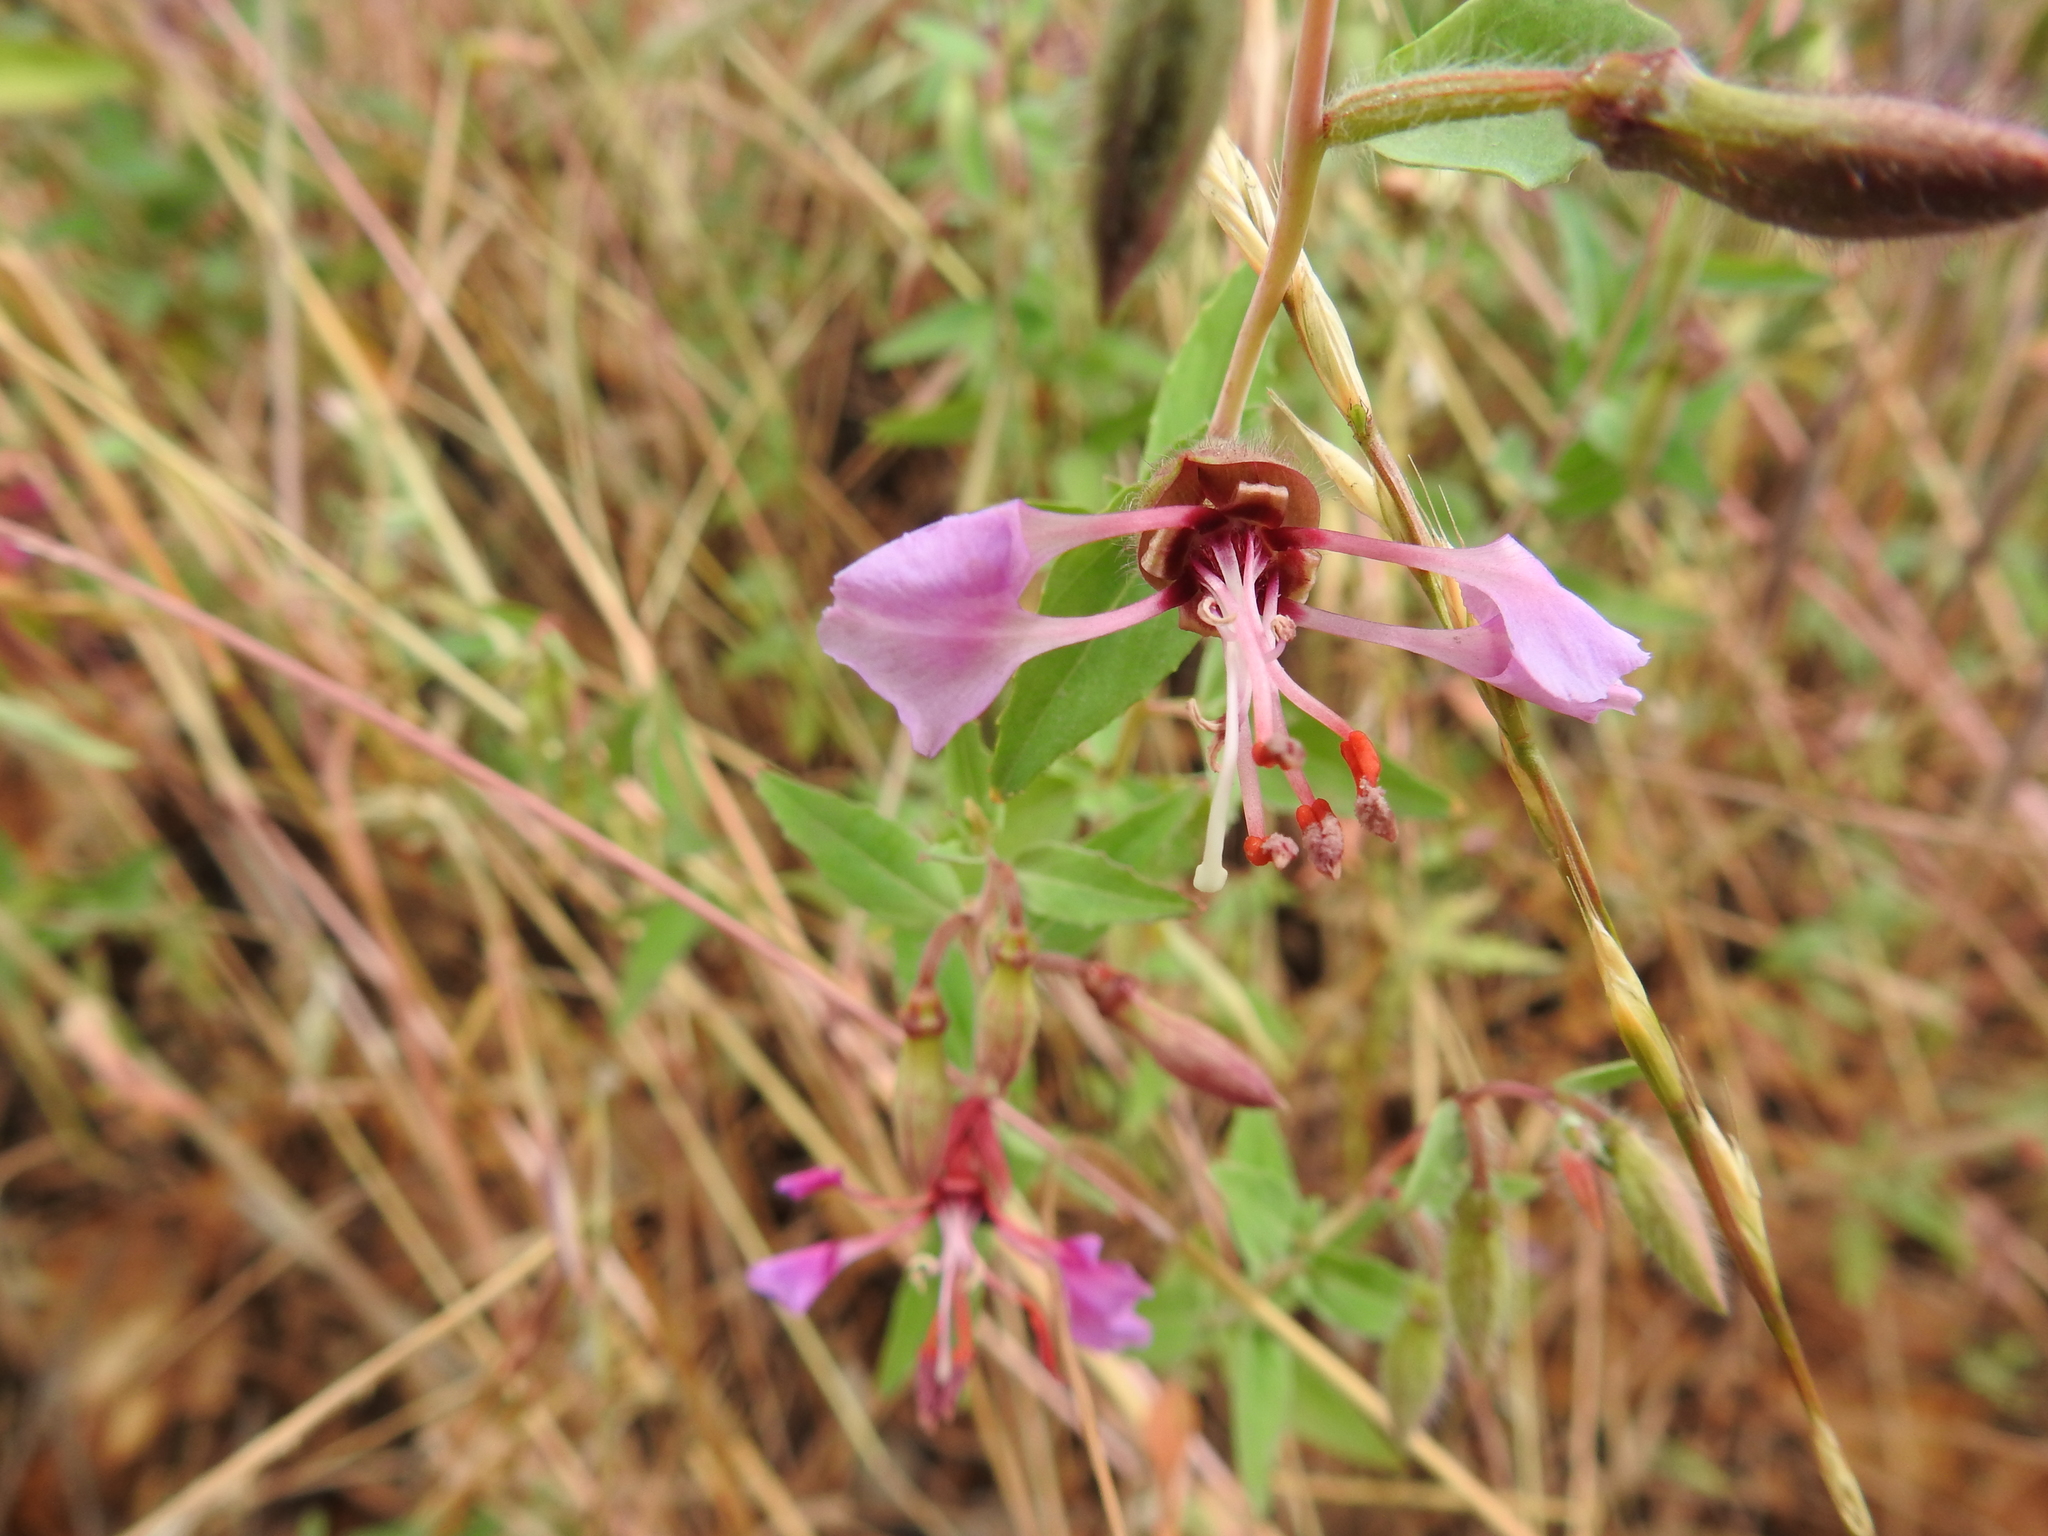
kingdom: Plantae
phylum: Tracheophyta
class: Magnoliopsida
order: Myrtales
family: Onagraceae
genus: Clarkia
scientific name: Clarkia unguiculata
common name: Clarkia
